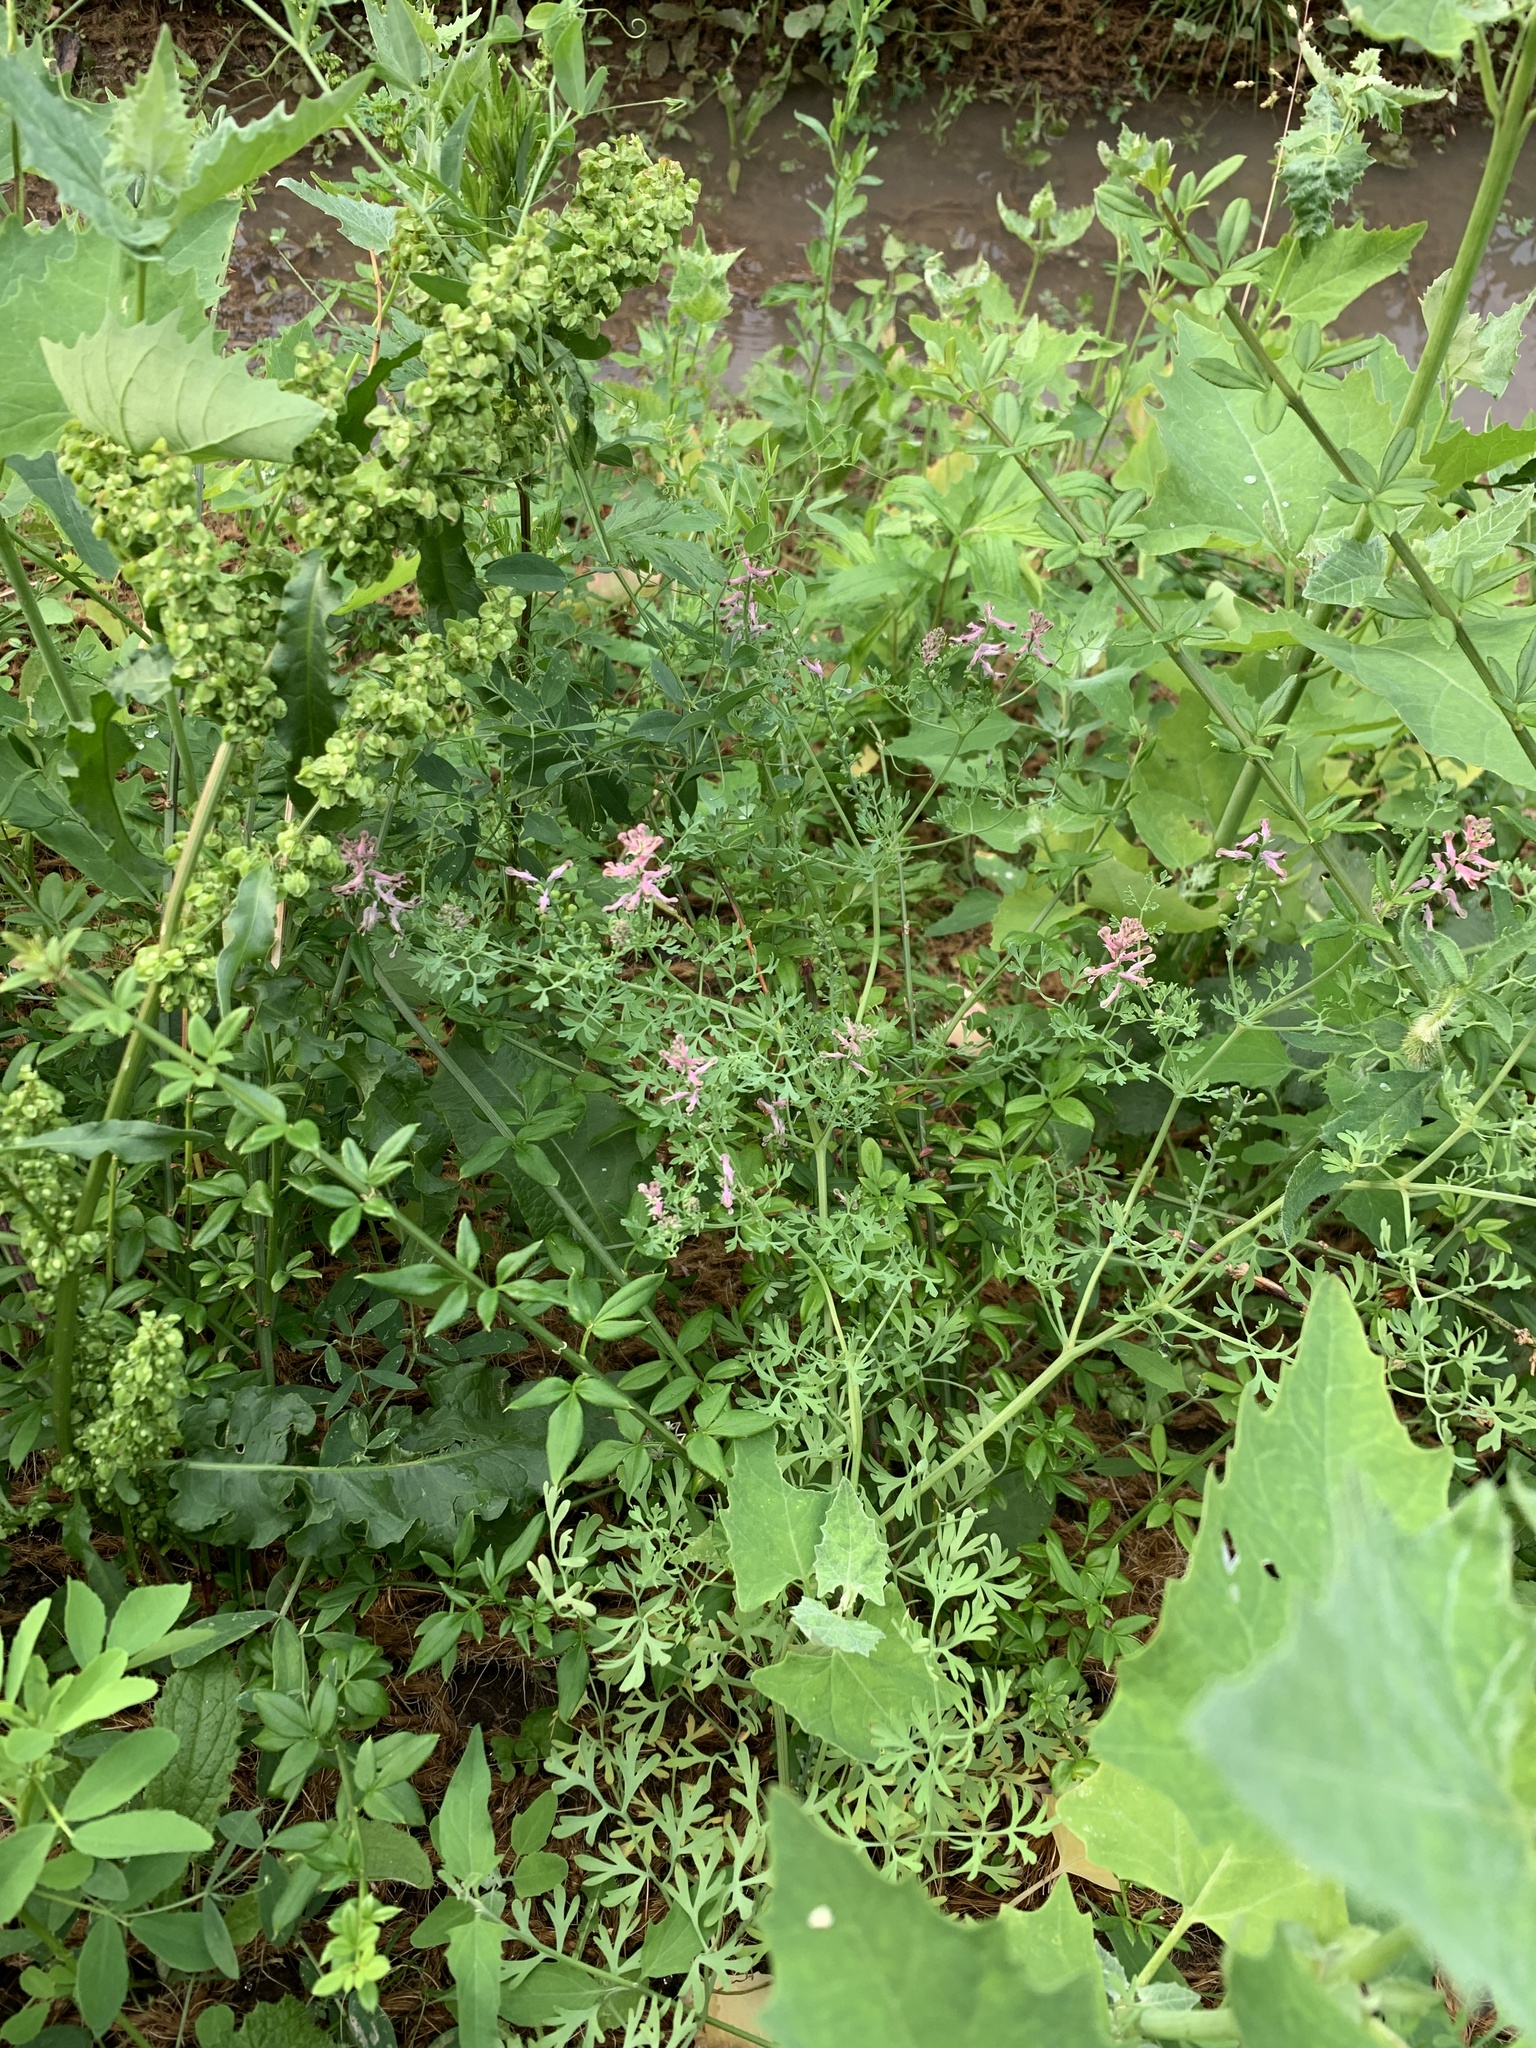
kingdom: Plantae
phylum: Tracheophyta
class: Magnoliopsida
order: Ranunculales
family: Papaveraceae
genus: Fumaria
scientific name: Fumaria officinalis
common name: Common fumitory
